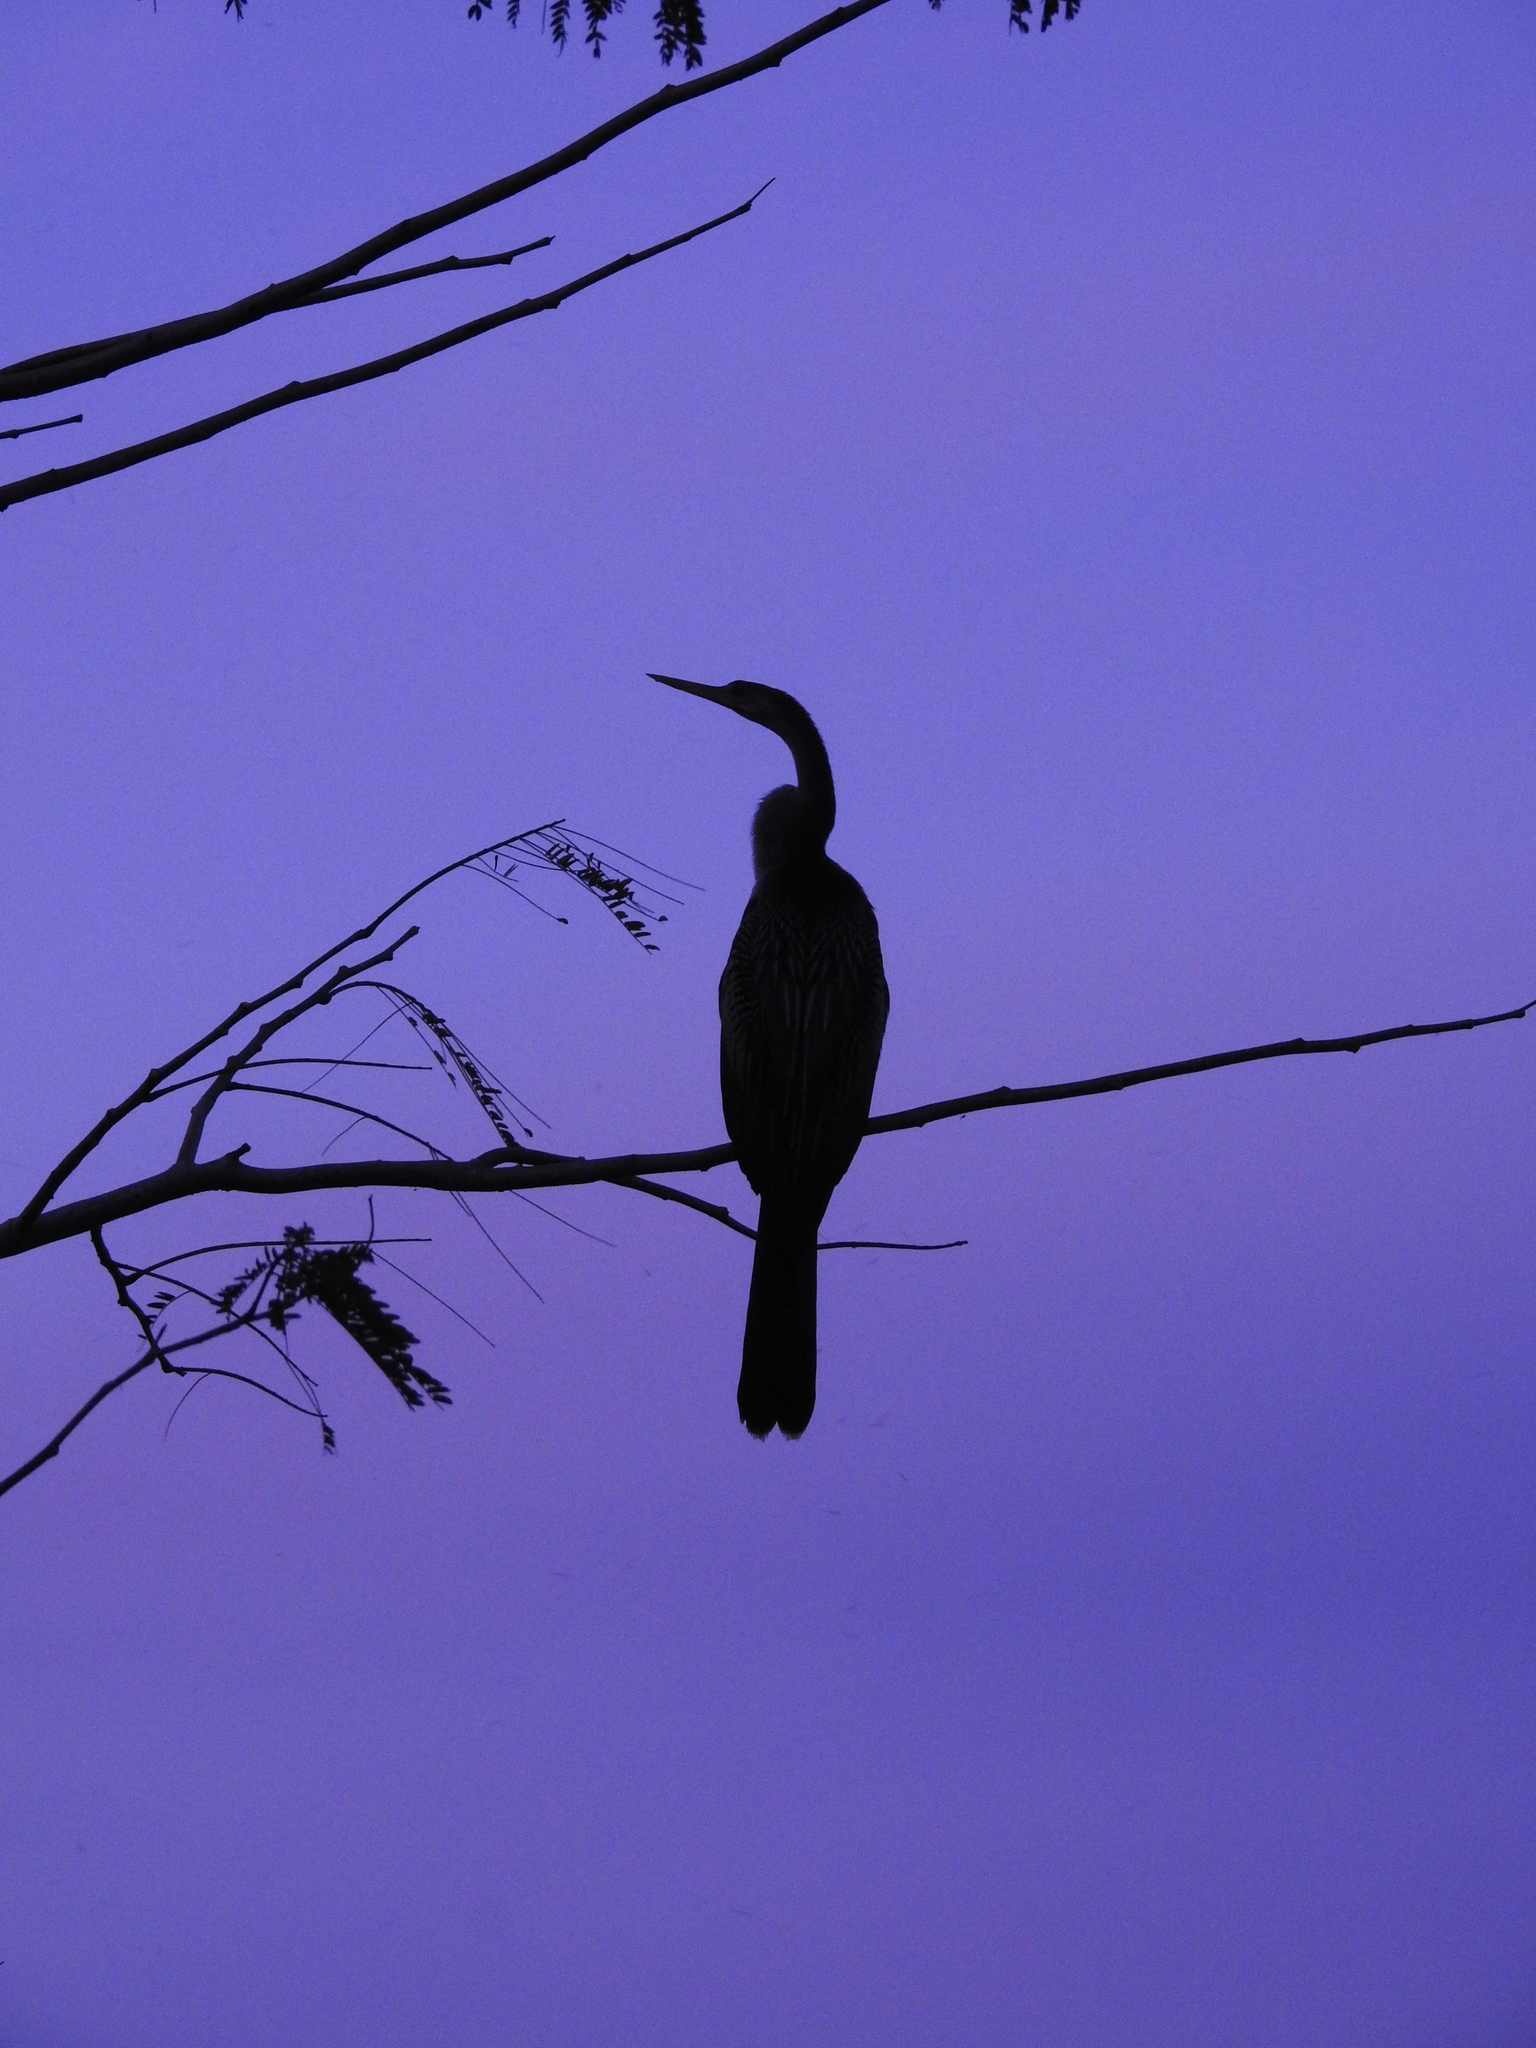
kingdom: Animalia
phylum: Chordata
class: Aves
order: Suliformes
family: Anhingidae
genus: Anhinga
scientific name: Anhinga anhinga
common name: Anhinga
